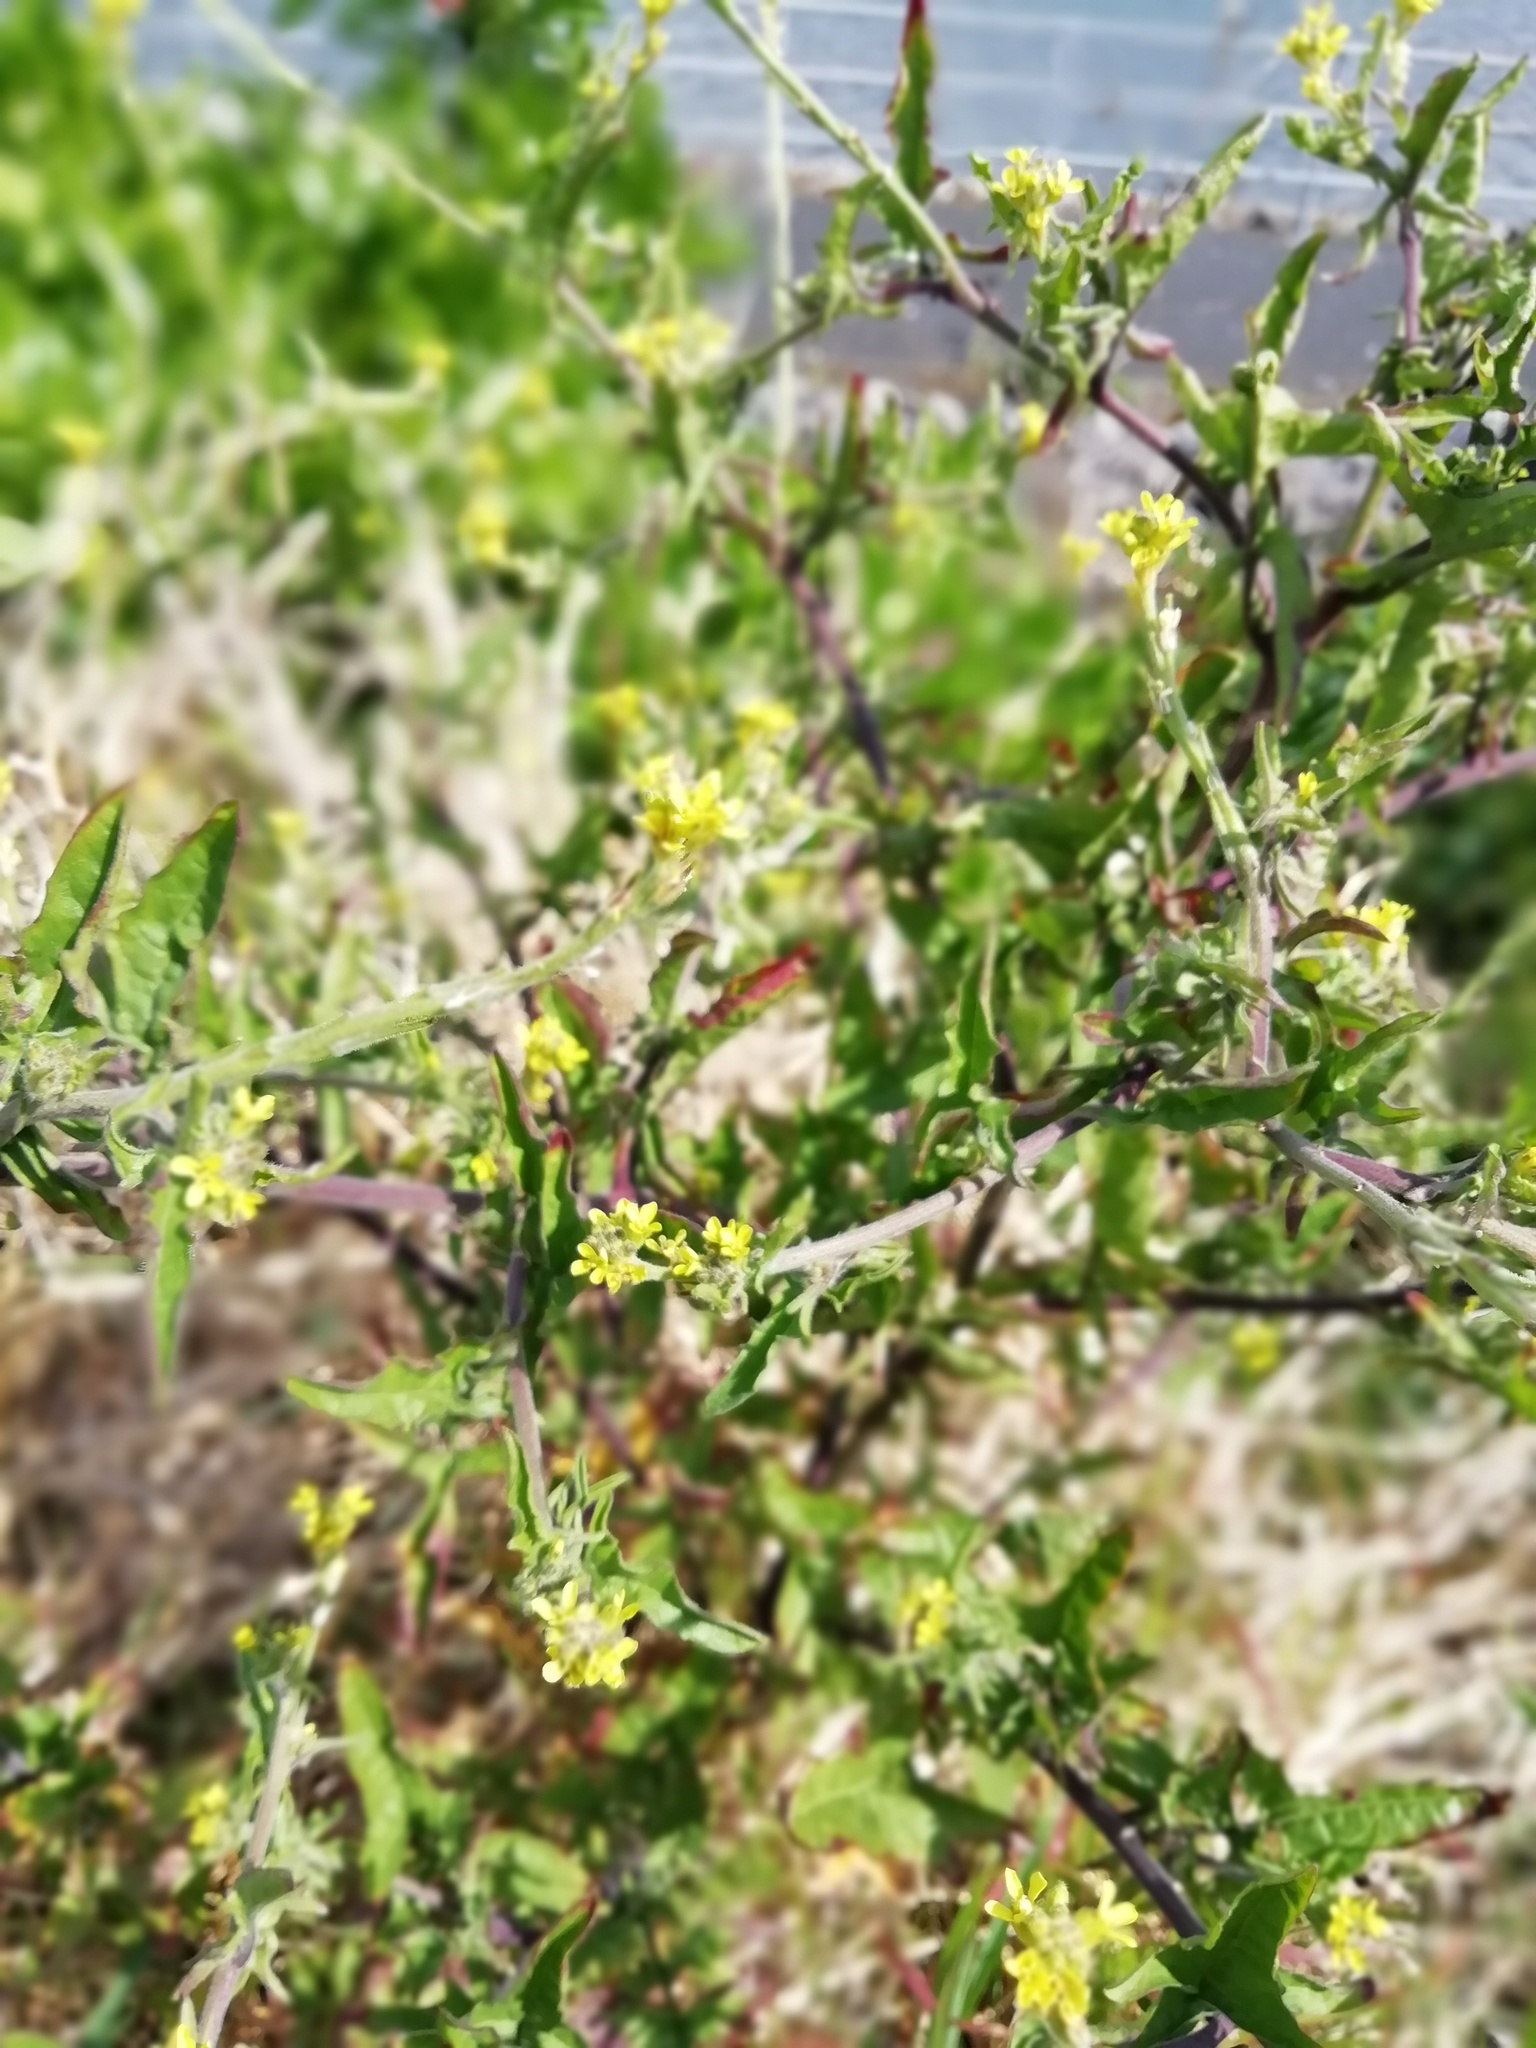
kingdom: Plantae
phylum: Tracheophyta
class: Magnoliopsida
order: Brassicales
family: Brassicaceae
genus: Sisymbrium
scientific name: Sisymbrium officinale
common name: Hedge mustard
